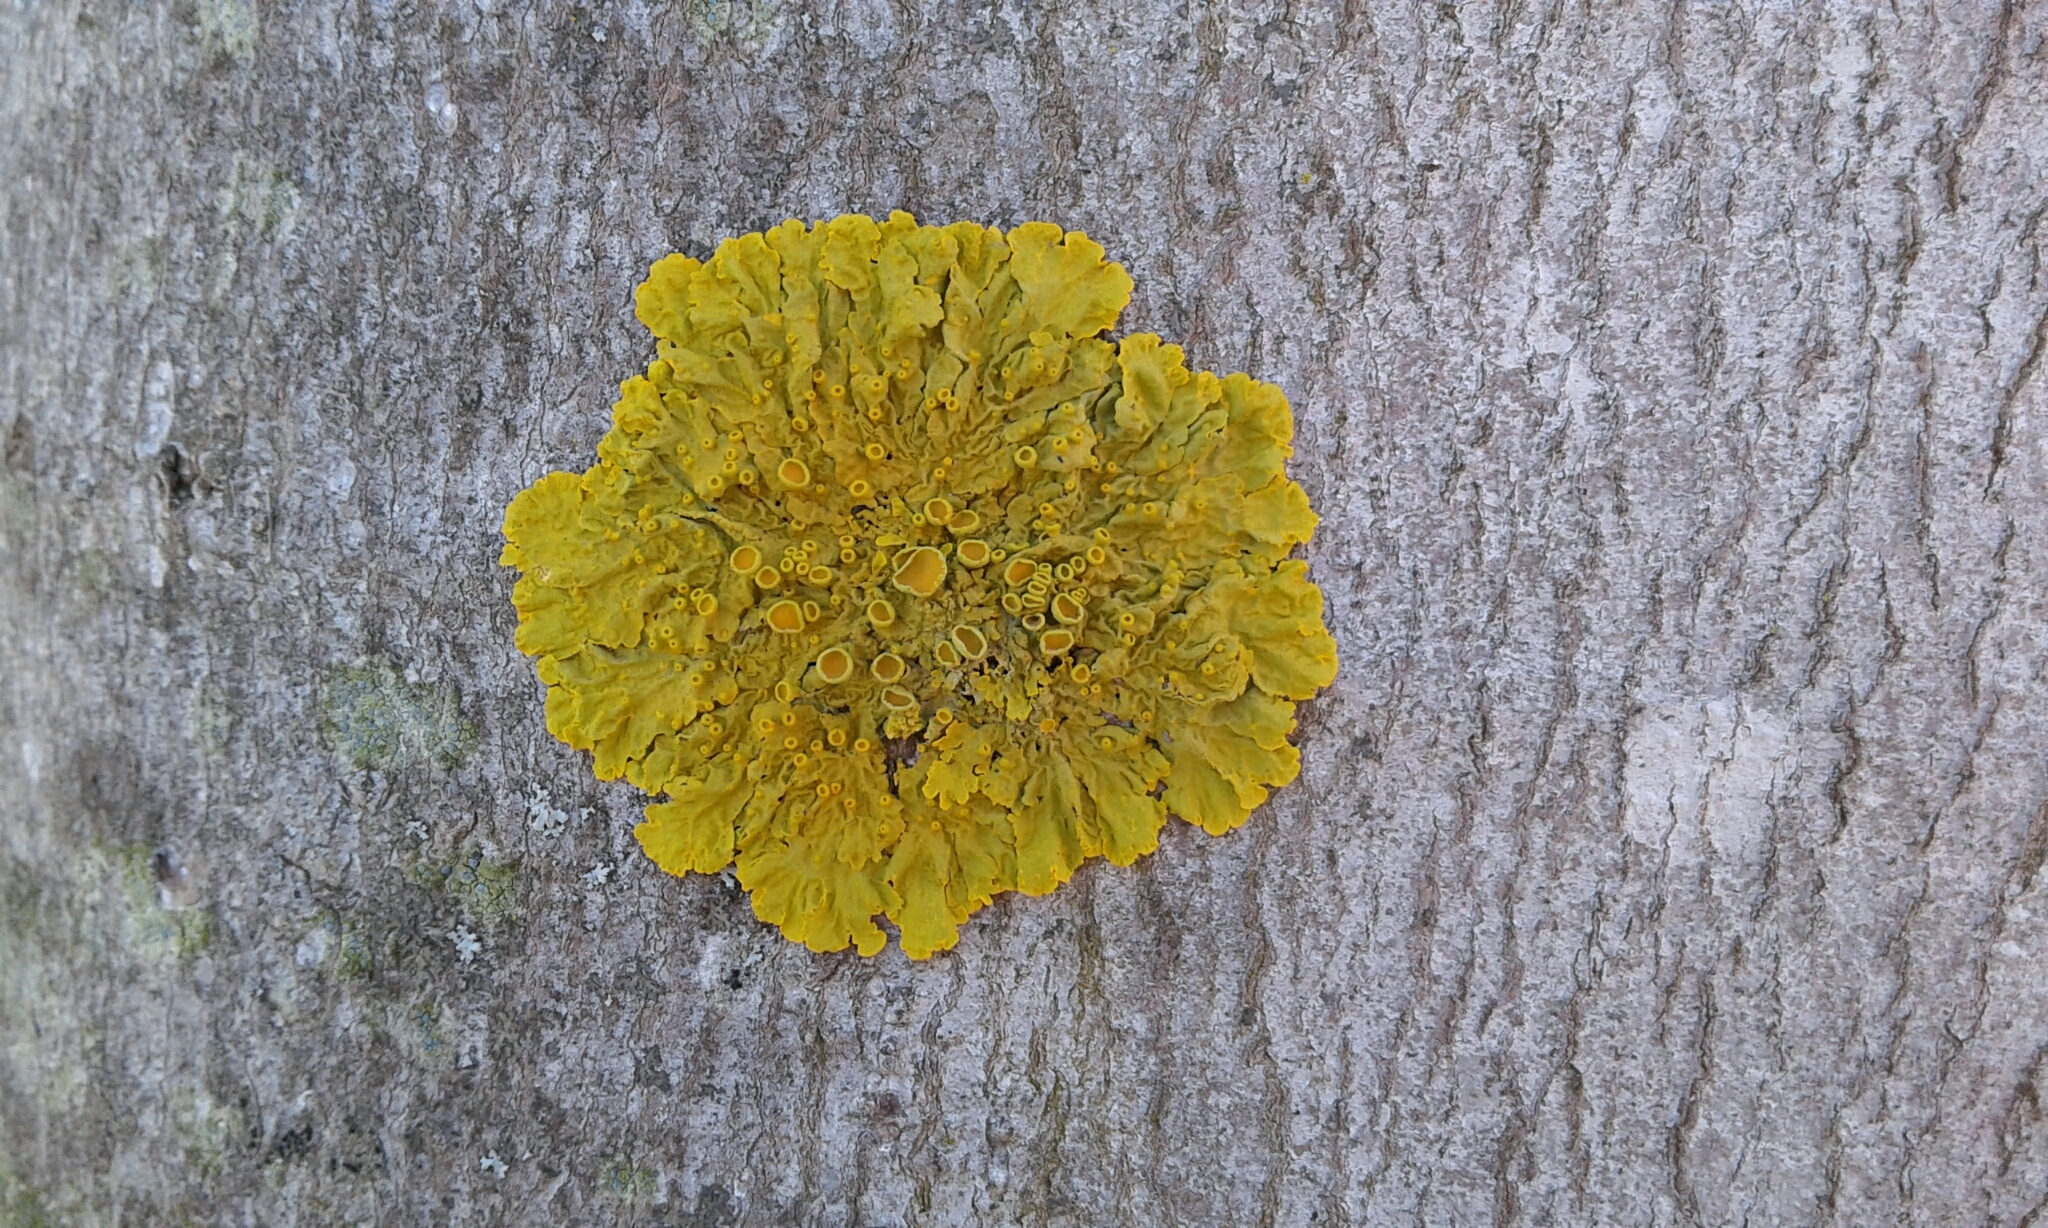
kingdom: Fungi
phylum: Ascomycota
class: Lecanoromycetes
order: Teloschistales
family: Teloschistaceae
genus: Xanthoria
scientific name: Xanthoria parietina
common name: Common orange lichen
